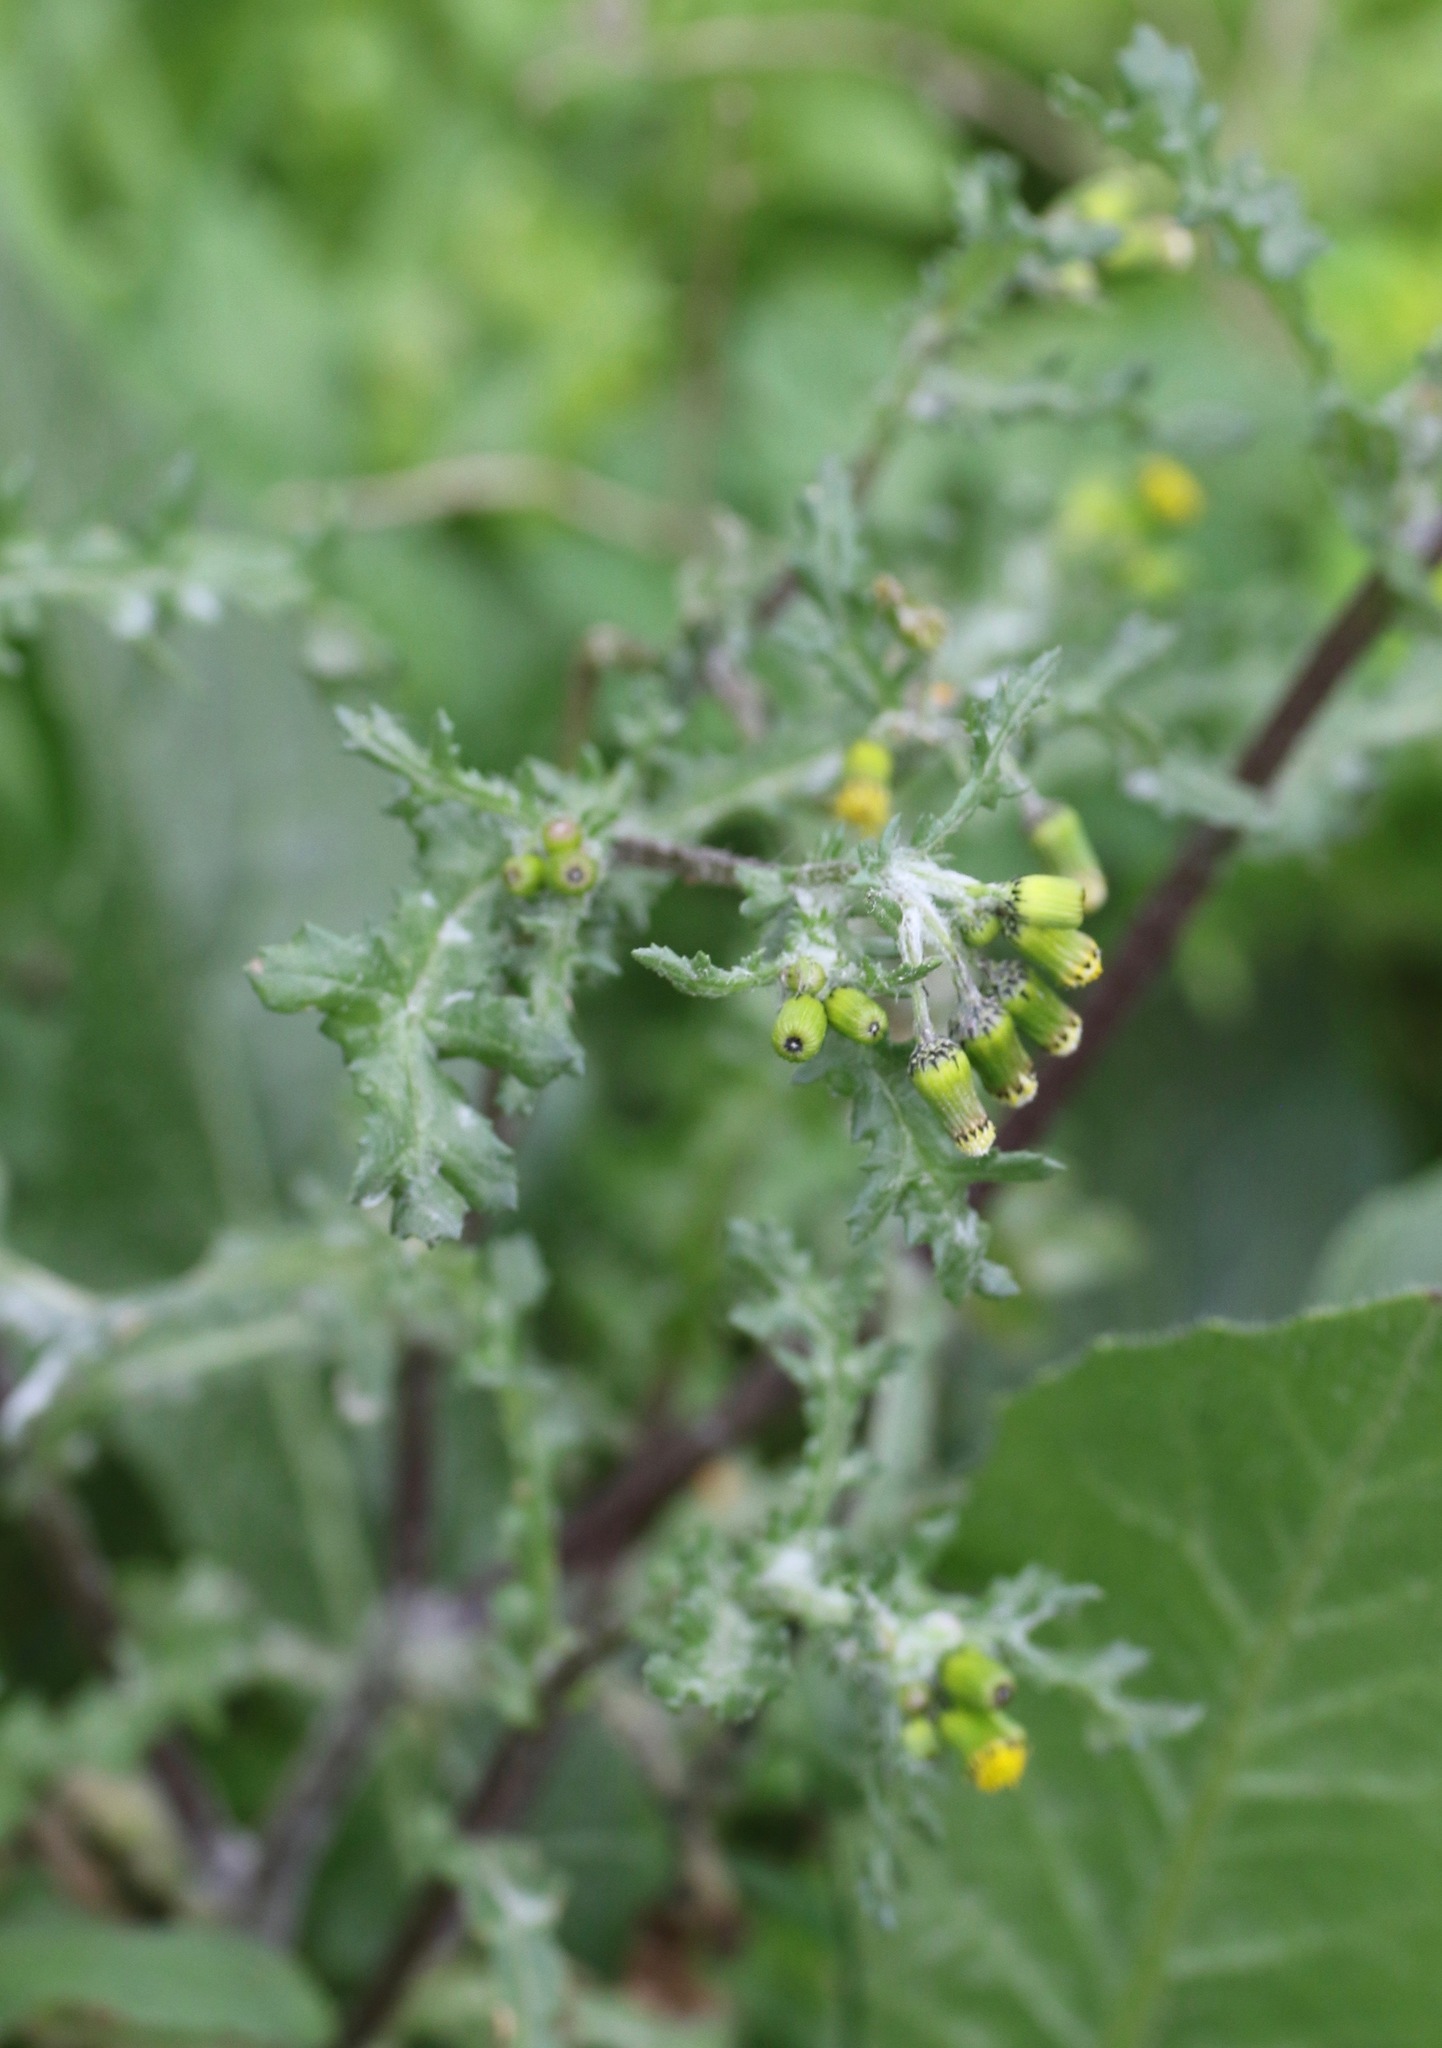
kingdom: Plantae
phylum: Tracheophyta
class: Magnoliopsida
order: Asterales
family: Asteraceae
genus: Senecio
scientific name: Senecio vulgaris
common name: Old-man-in-the-spring
